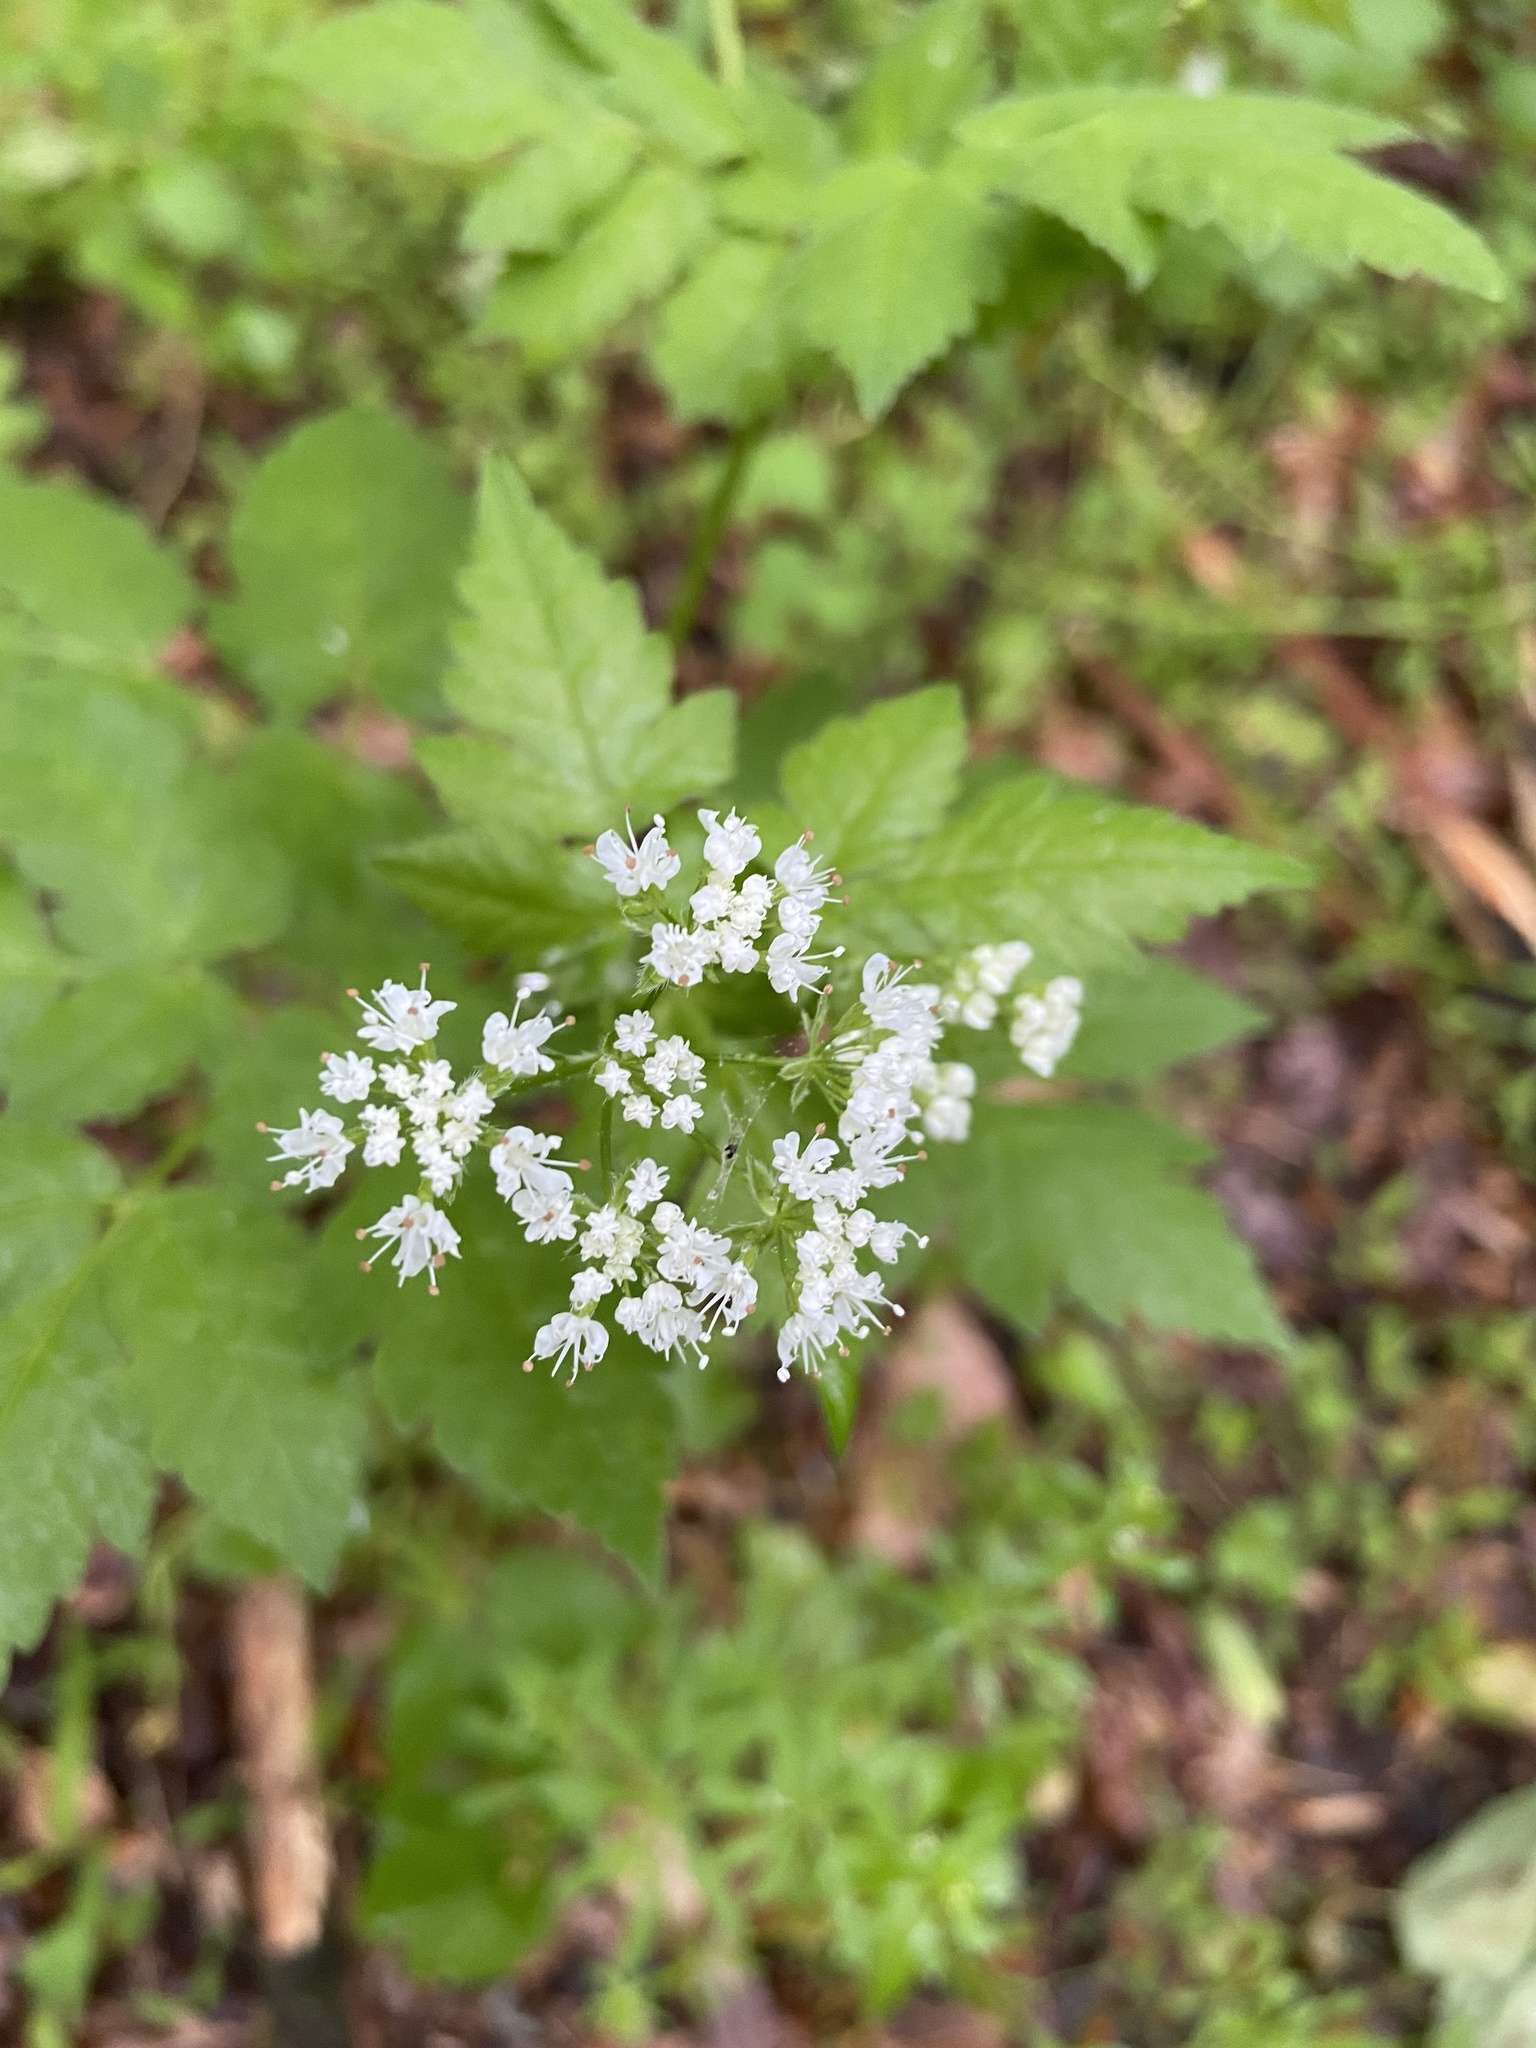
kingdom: Plantae
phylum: Tracheophyta
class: Magnoliopsida
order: Apiales
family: Apiaceae
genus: Osmorhiza
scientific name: Osmorhiza longistylis
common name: Smooth sweet cicely
